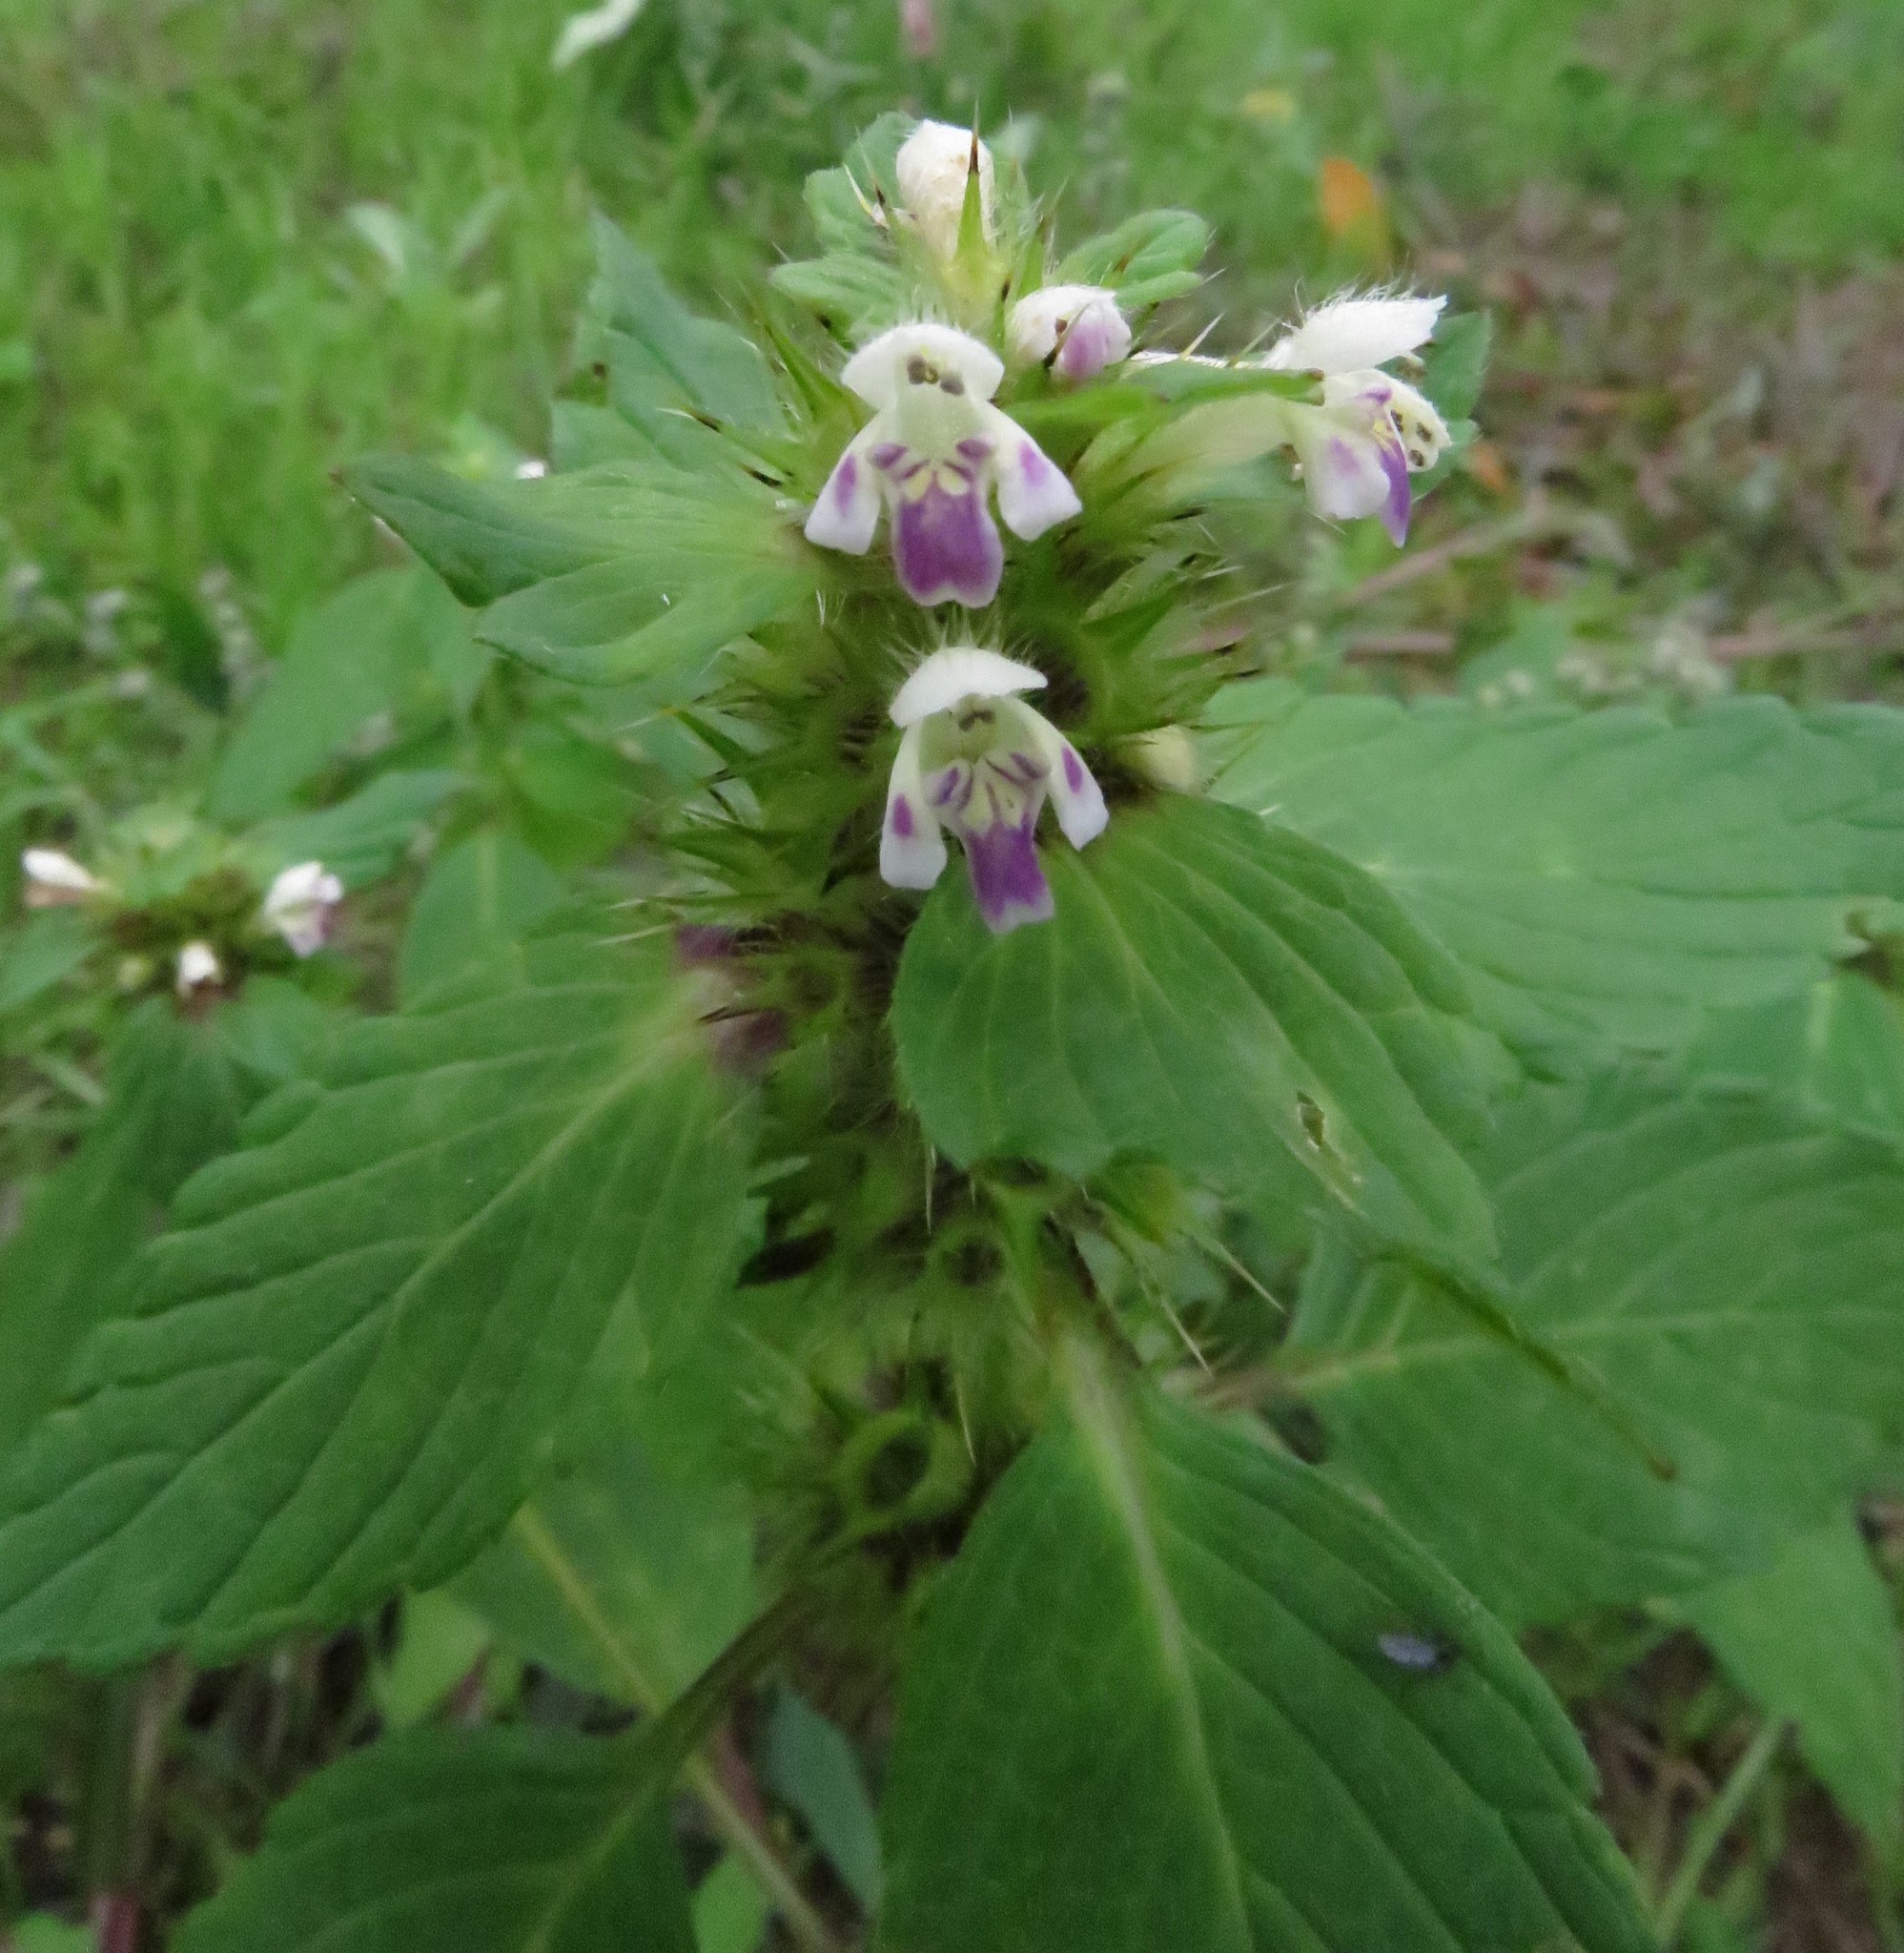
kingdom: Plantae
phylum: Tracheophyta
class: Magnoliopsida
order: Lamiales
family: Lamiaceae
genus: Galeopsis
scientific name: Galeopsis bifida
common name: Bifid hemp-nettle
